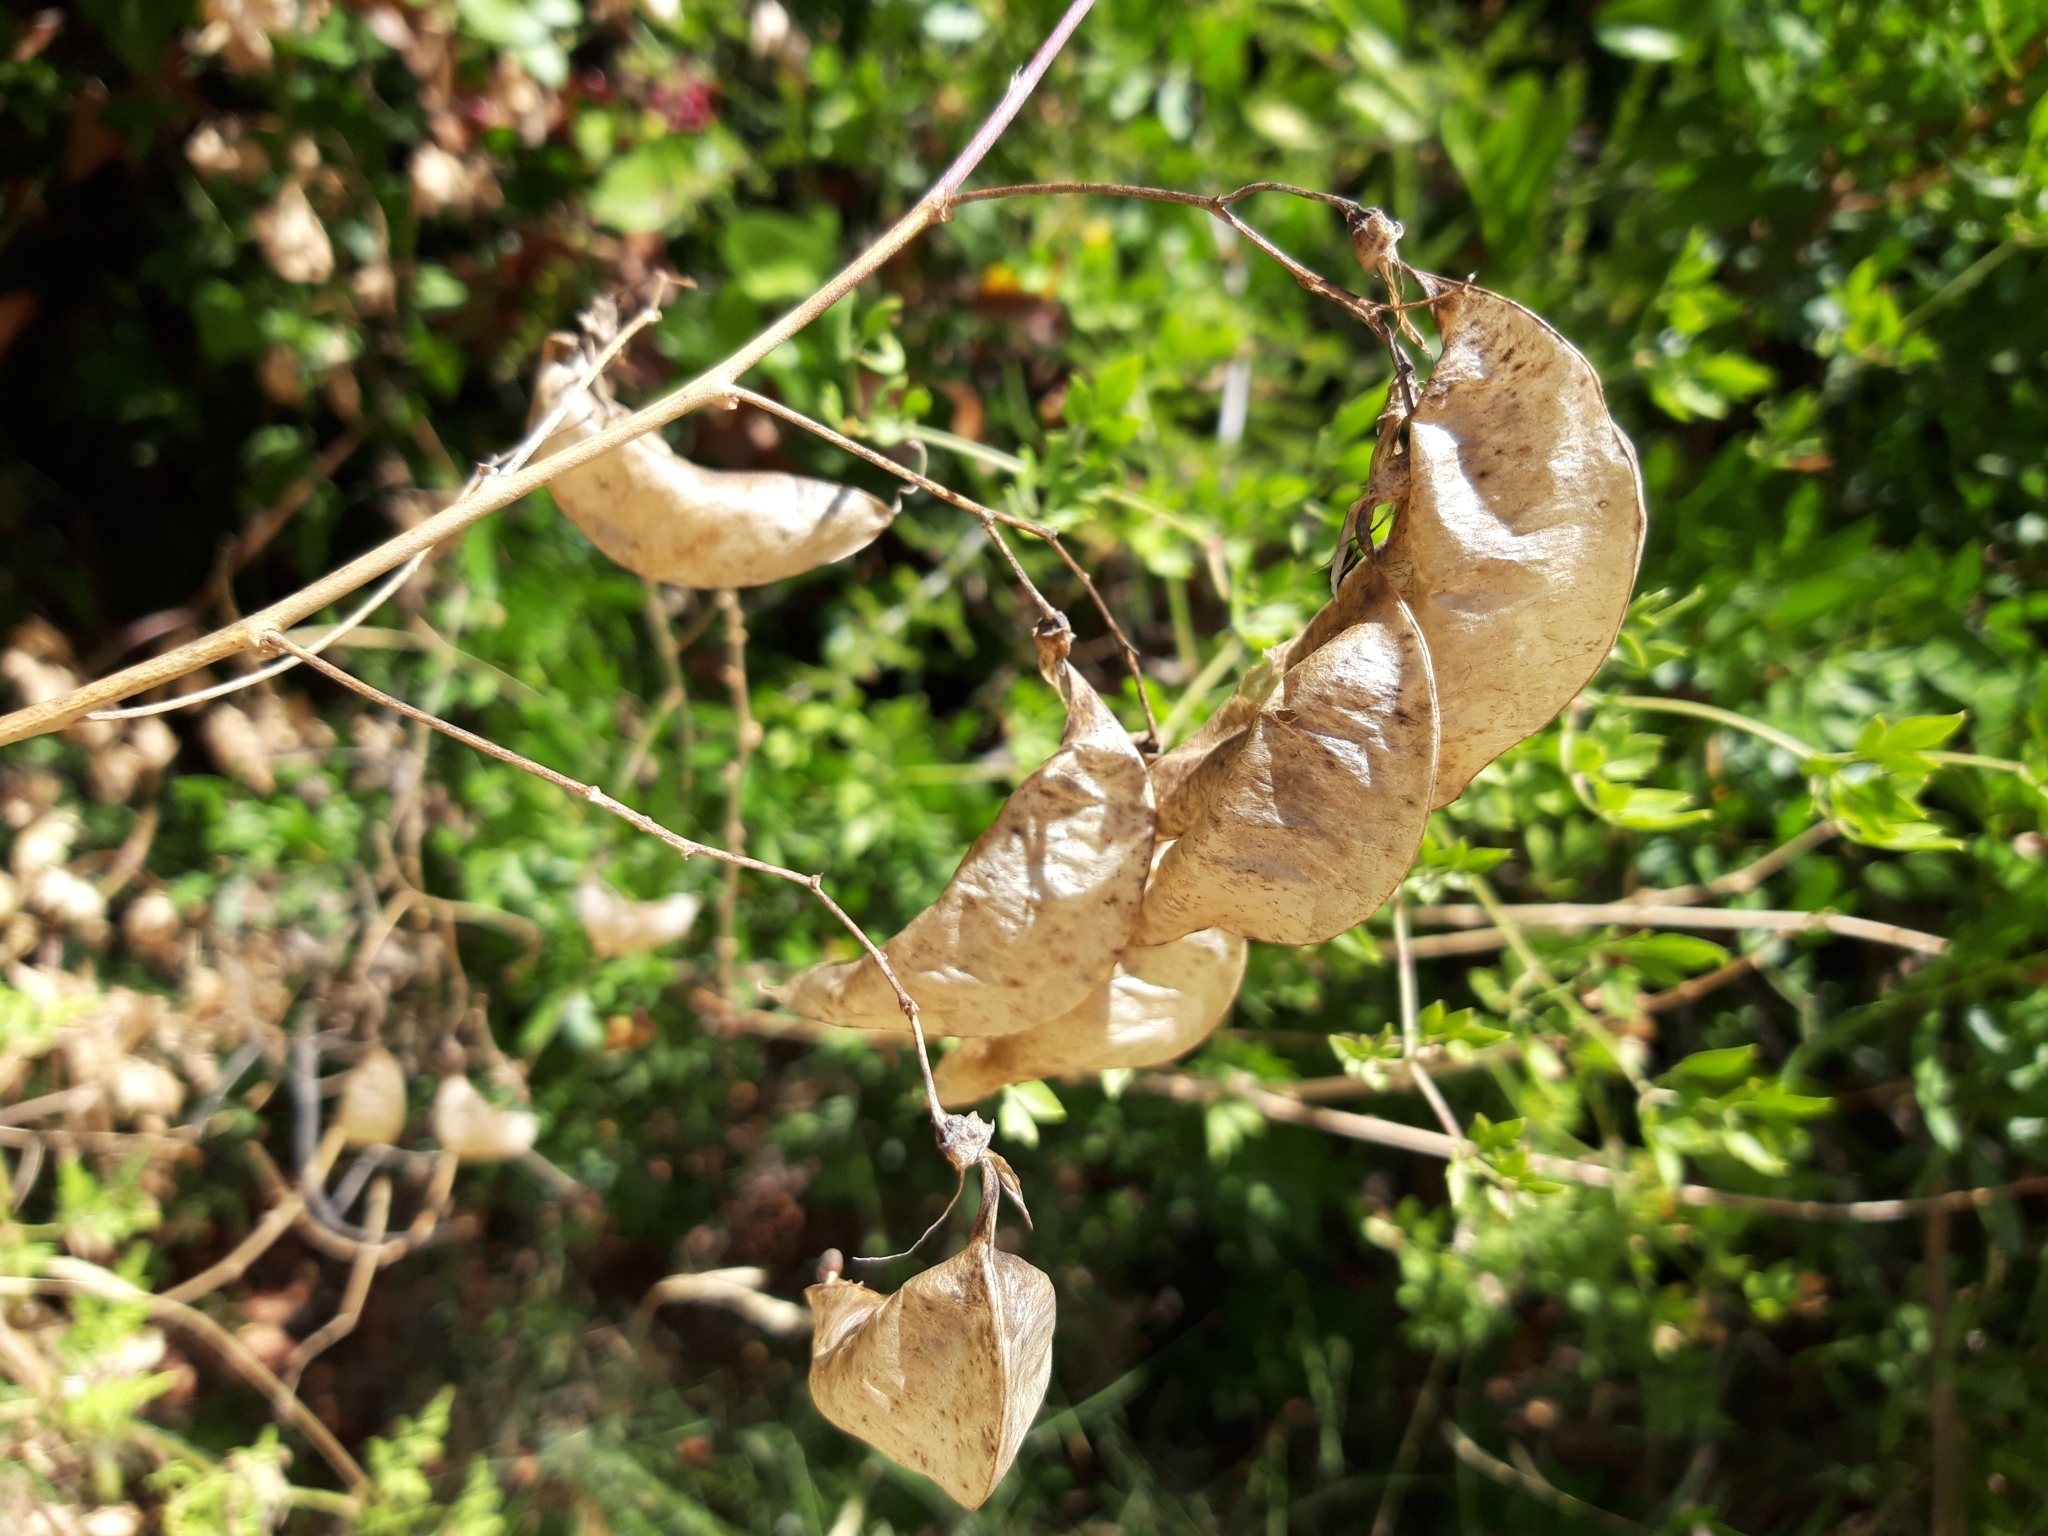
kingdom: Plantae
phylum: Tracheophyta
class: Magnoliopsida
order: Fabales
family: Fabaceae
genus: Colutea
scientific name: Colutea arborescens
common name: Bladder-senna
